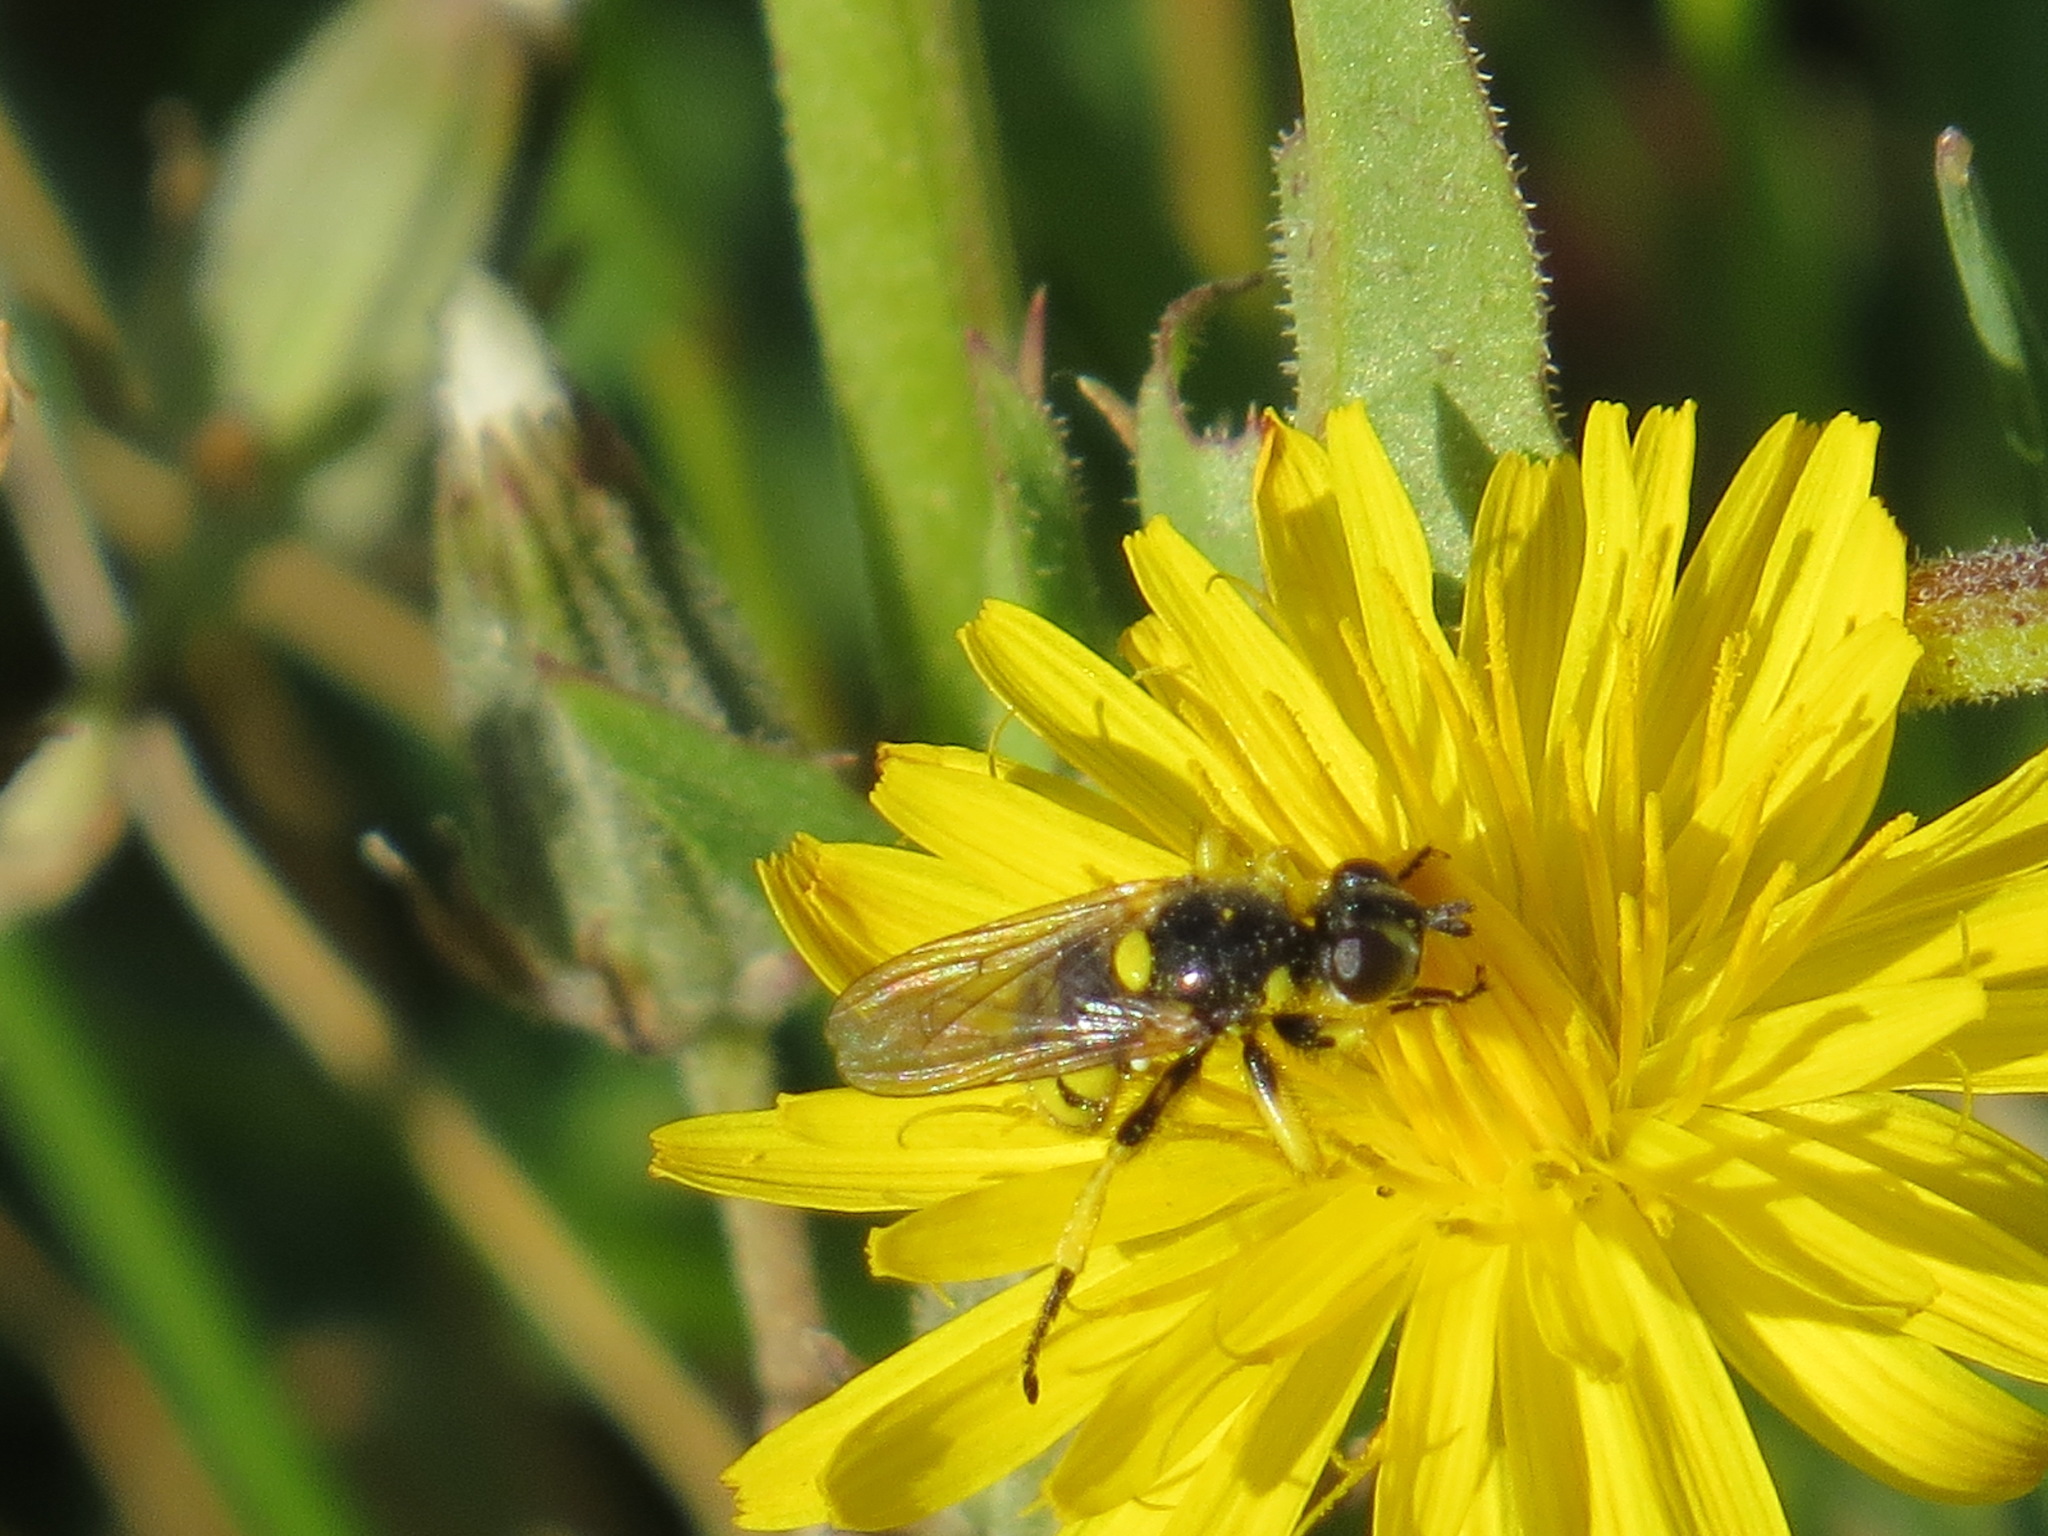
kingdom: Animalia
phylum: Arthropoda
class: Insecta
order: Diptera
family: Conopidae
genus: Dalmannia
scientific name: Dalmannia pacifica
